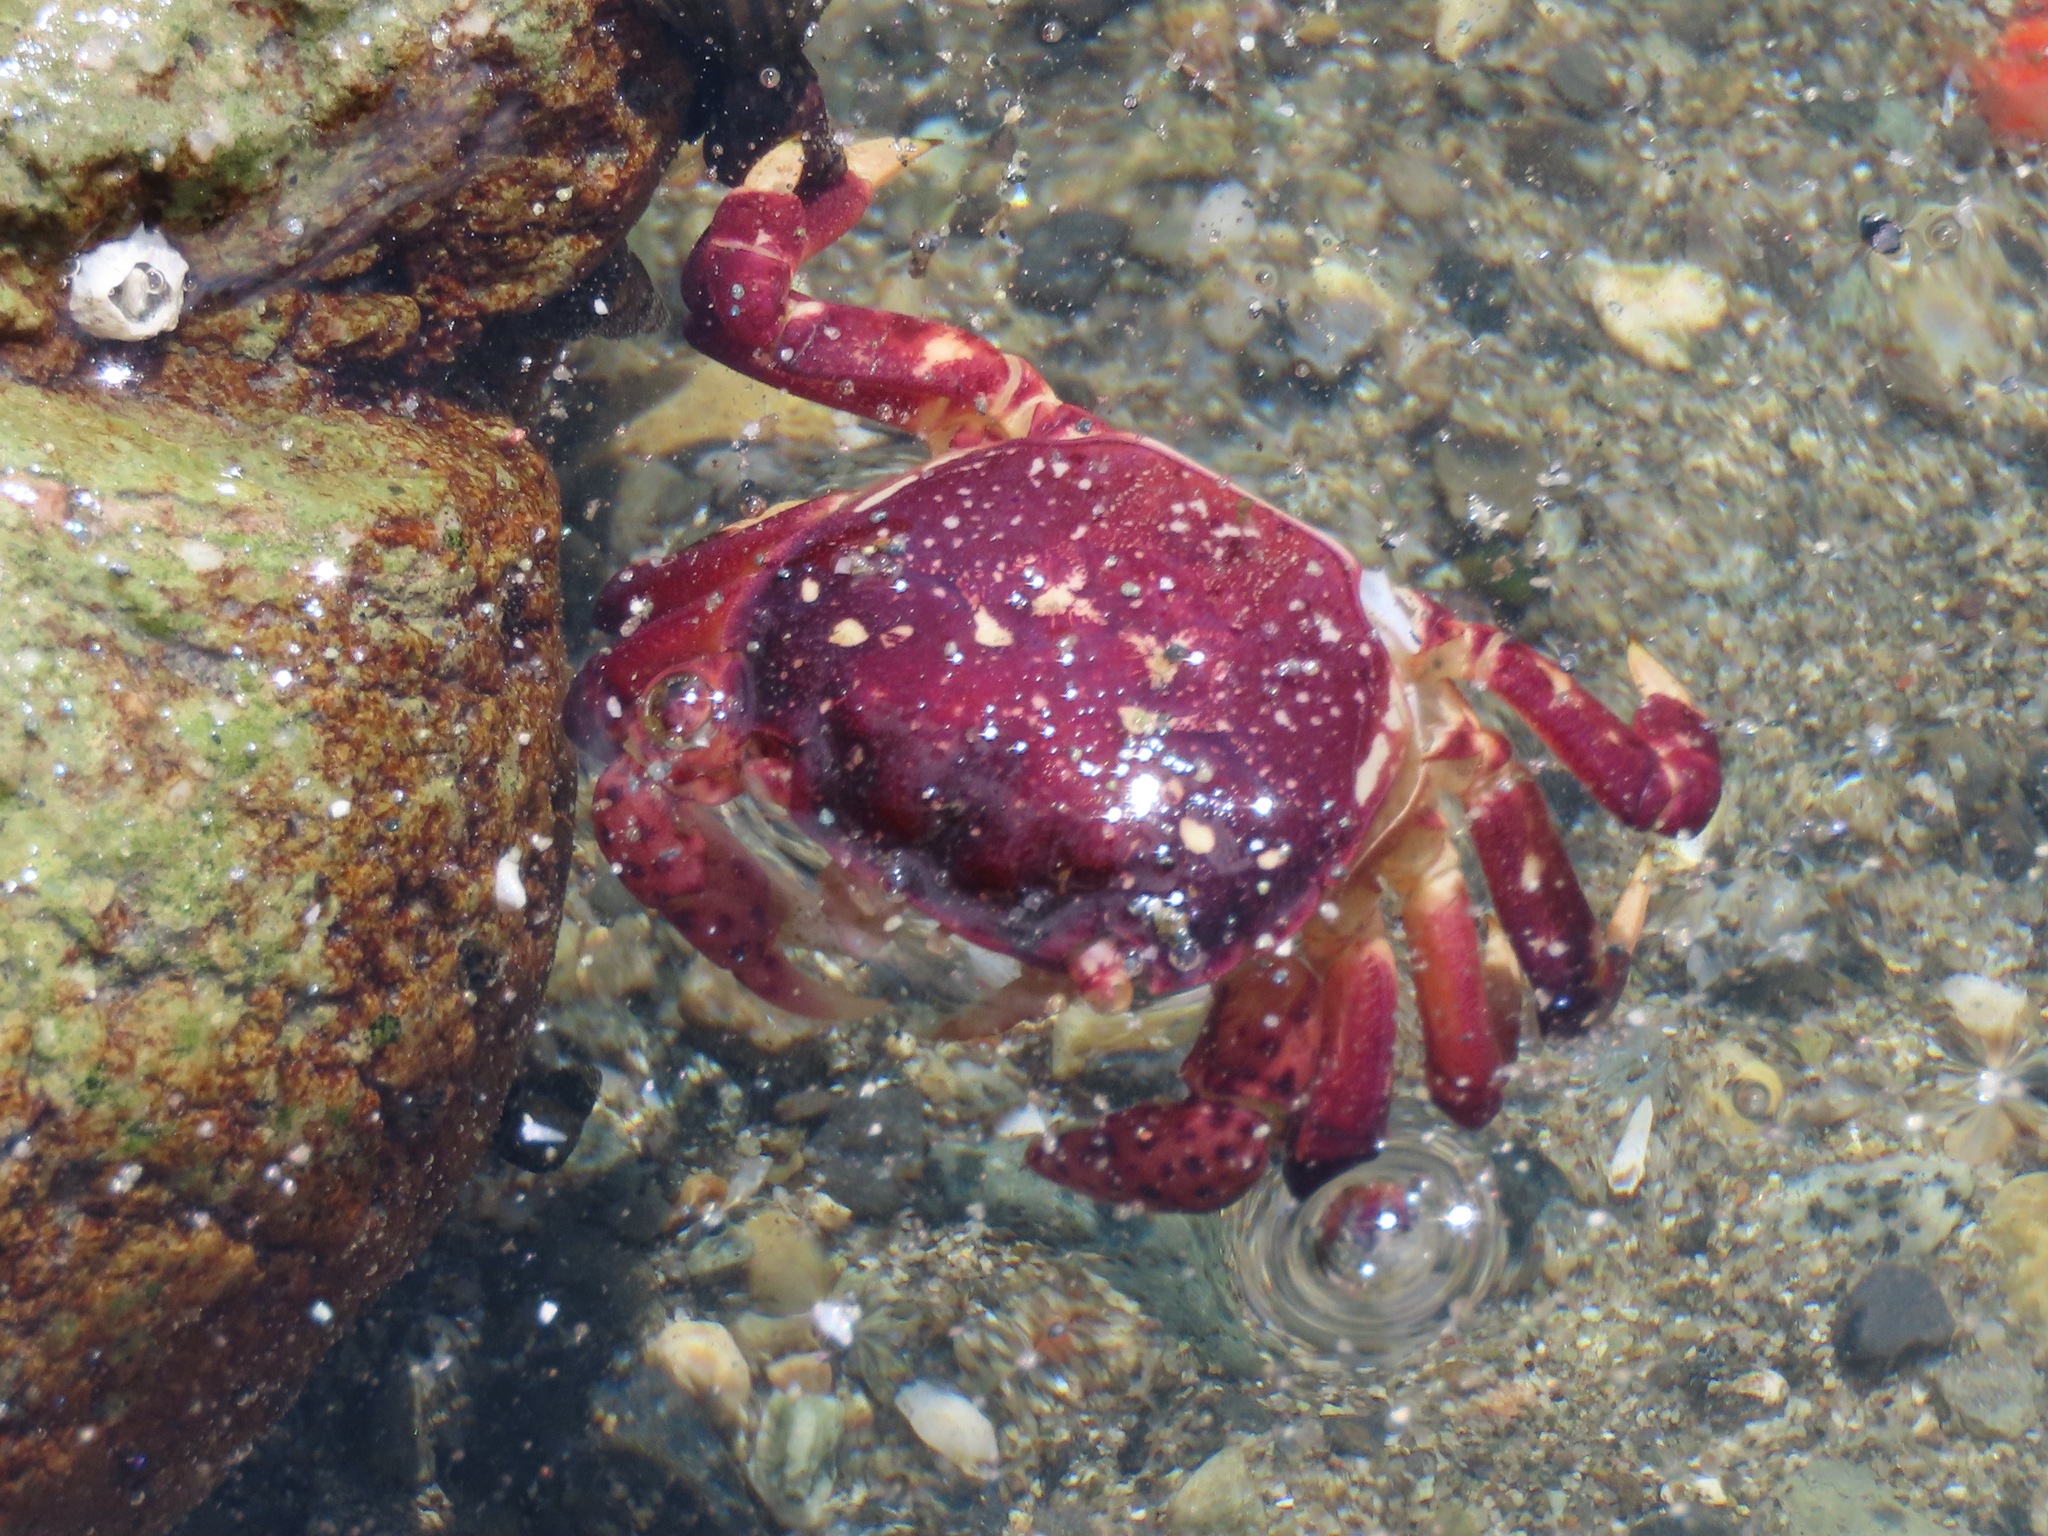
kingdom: Animalia
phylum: Arthropoda
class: Malacostraca
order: Decapoda
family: Varunidae
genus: Hemigrapsus
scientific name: Hemigrapsus nudus
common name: Purple shore crab
